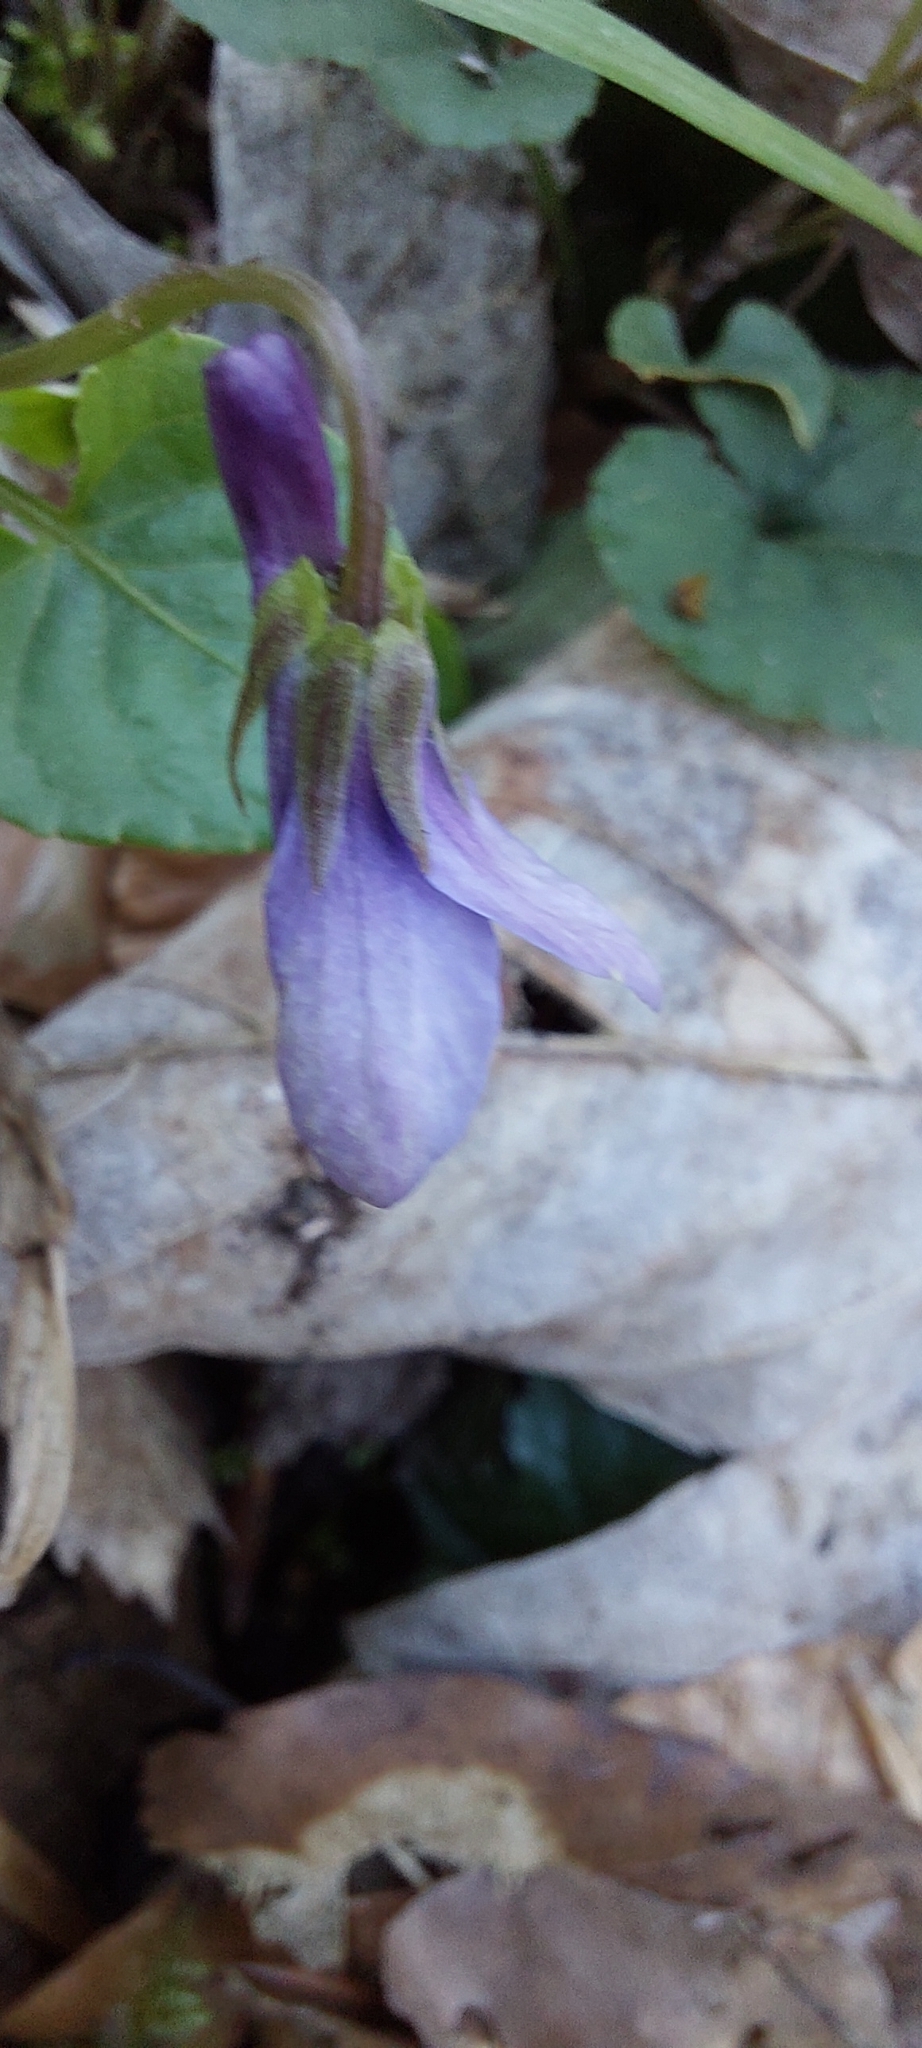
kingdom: Plantae
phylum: Tracheophyta
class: Magnoliopsida
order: Malpighiales
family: Violaceae
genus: Viola
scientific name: Viola reichenbachiana
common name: Early dog-violet
